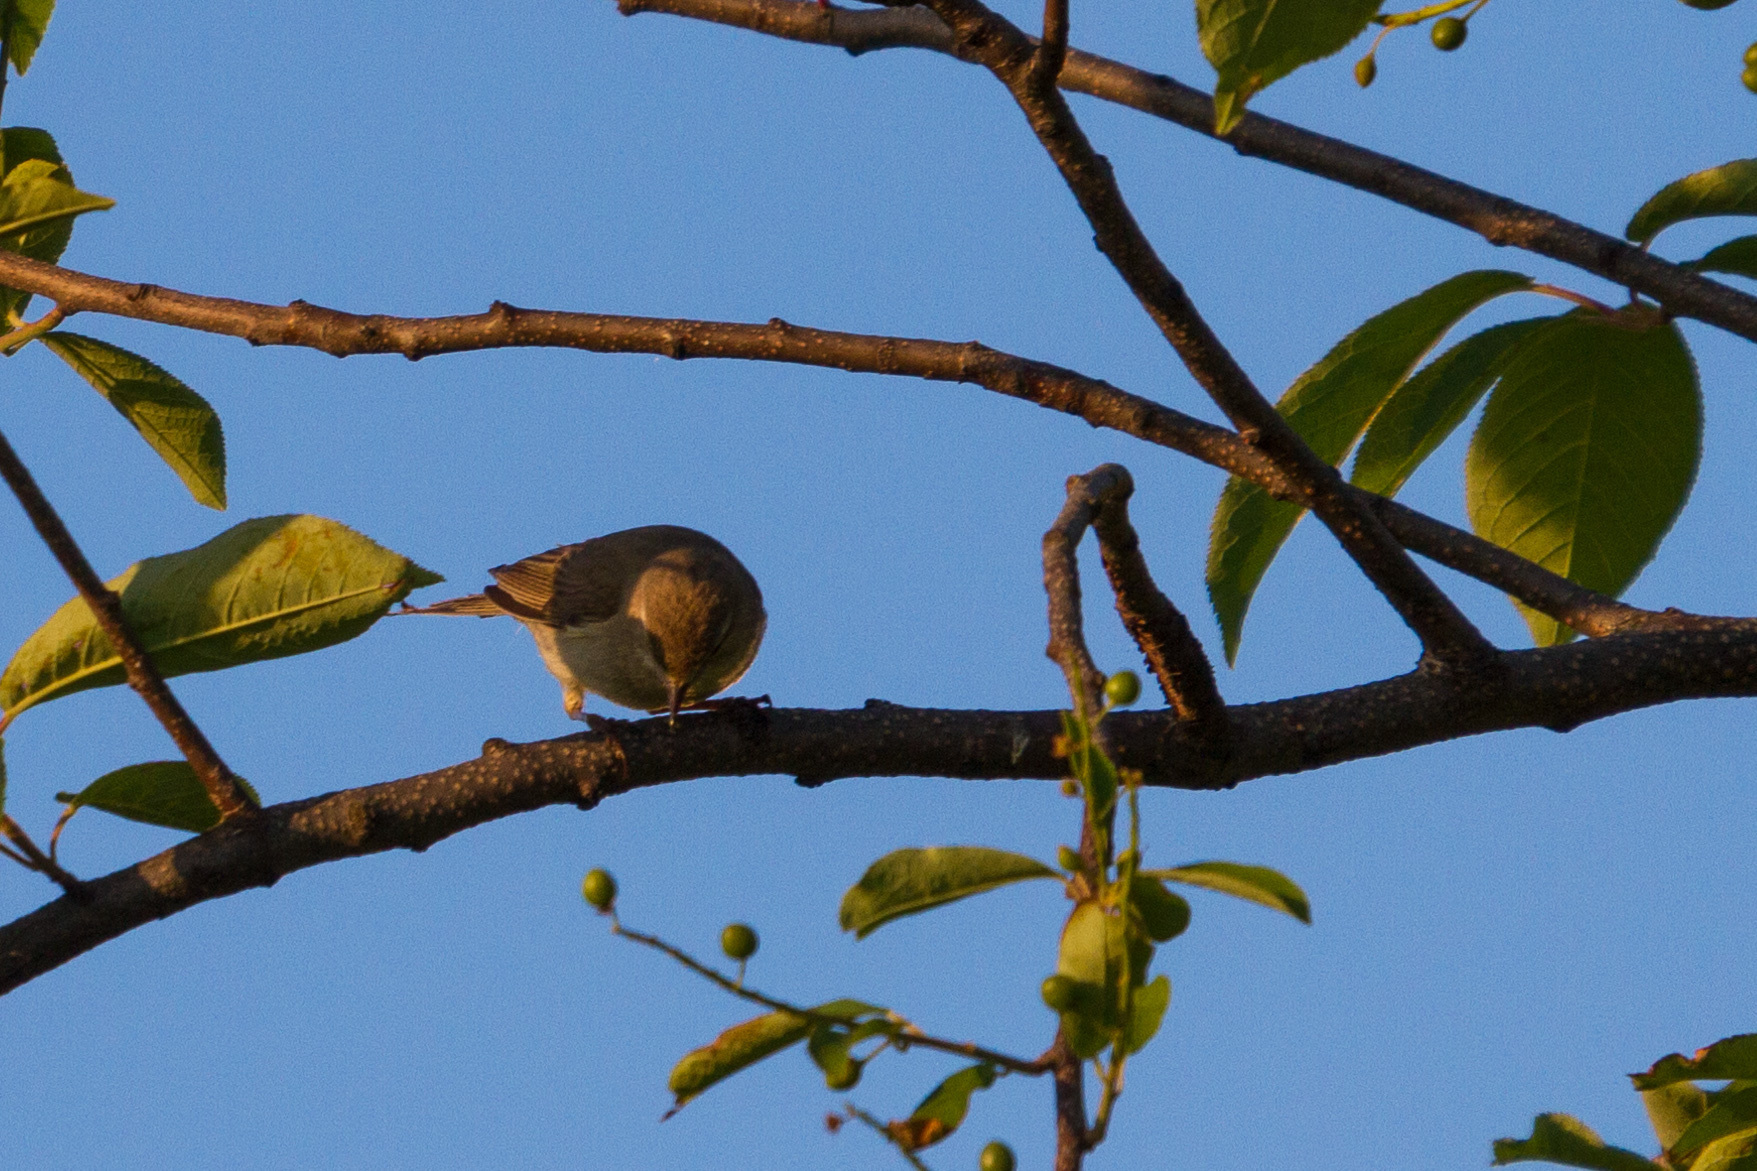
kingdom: Animalia
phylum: Chordata
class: Aves
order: Passeriformes
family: Phylloscopidae
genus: Phylloscopus
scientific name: Phylloscopus trochilus
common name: Willow warbler
